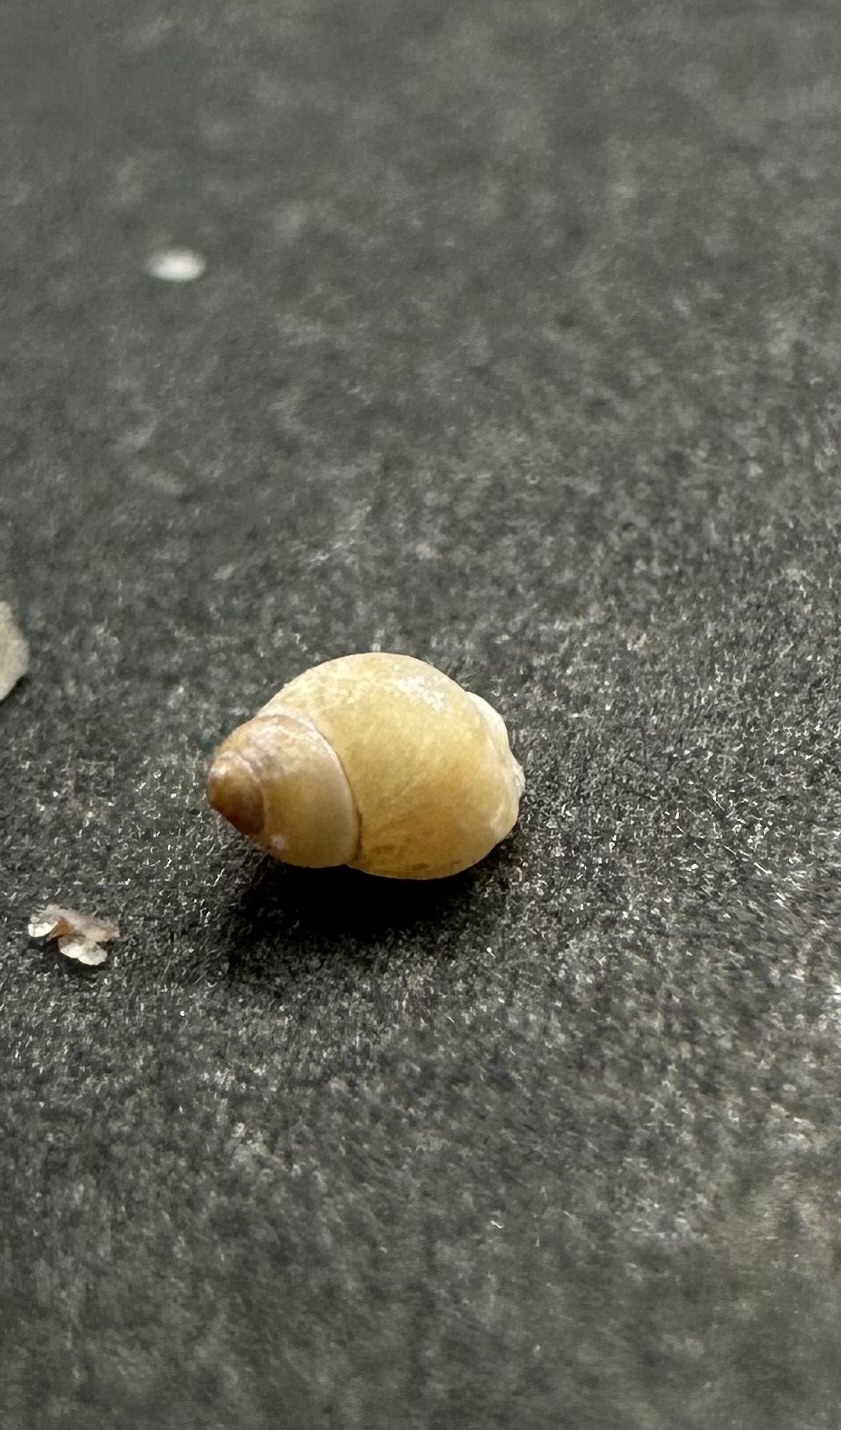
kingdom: Animalia
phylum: Mollusca
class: Gastropoda
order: Littorinimorpha
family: Littorinidae
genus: Lacuna
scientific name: Lacuna vincta
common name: Banded chink shell
